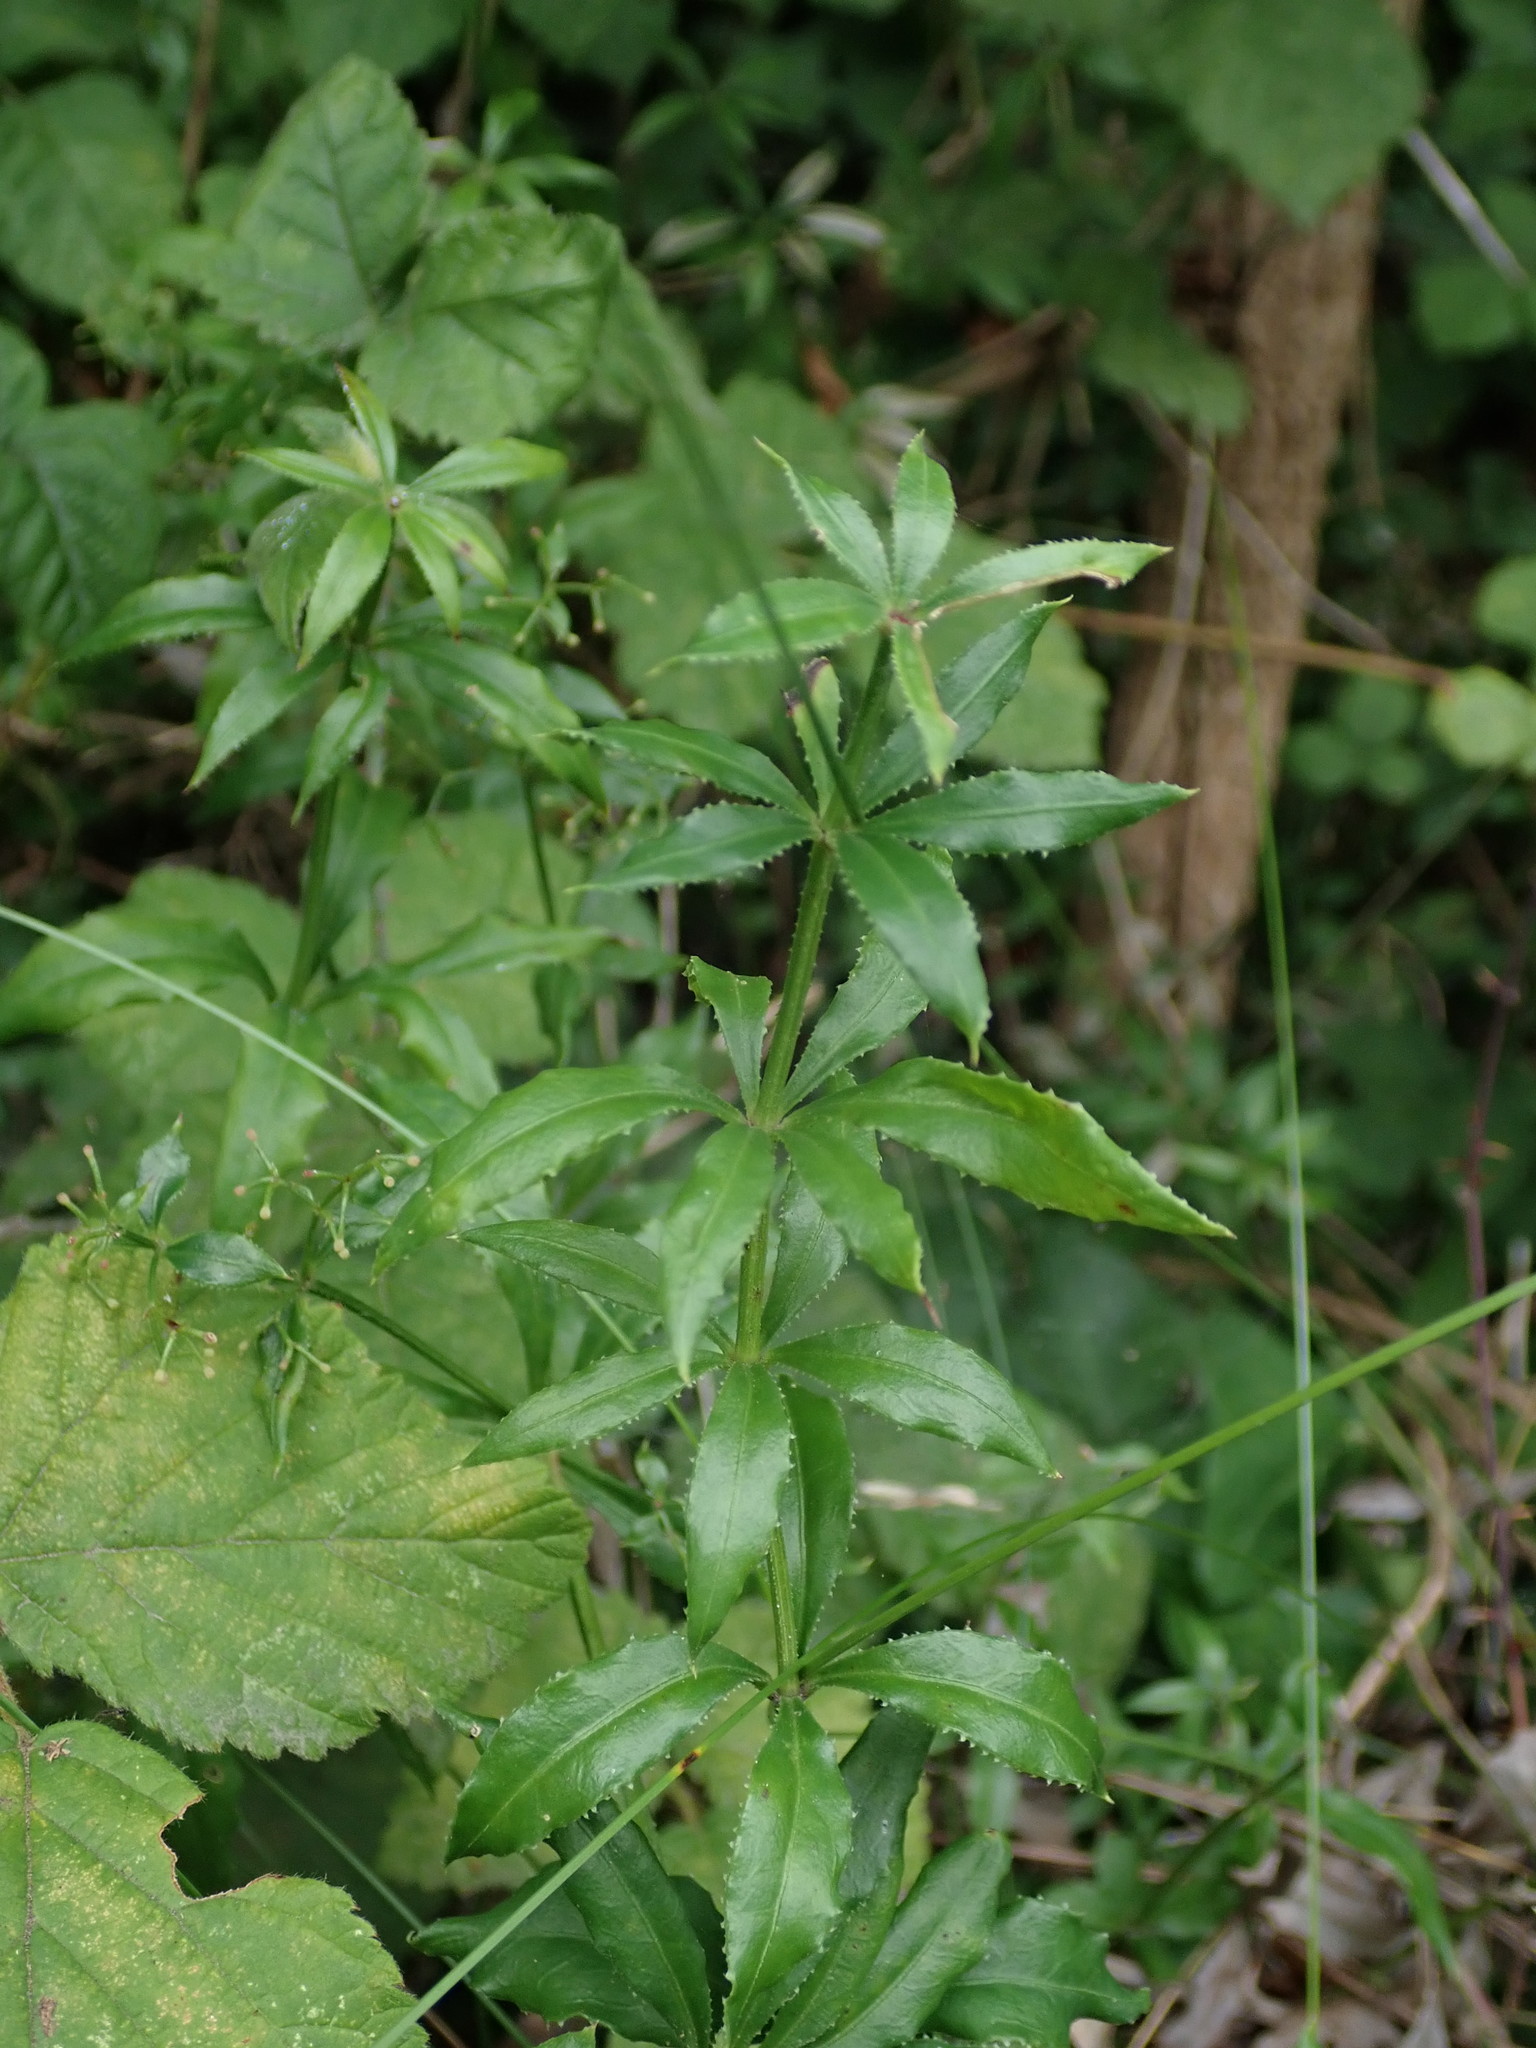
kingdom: Plantae
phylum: Tracheophyta
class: Magnoliopsida
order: Gentianales
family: Rubiaceae
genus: Rubia
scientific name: Rubia peregrina
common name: Wild madder
